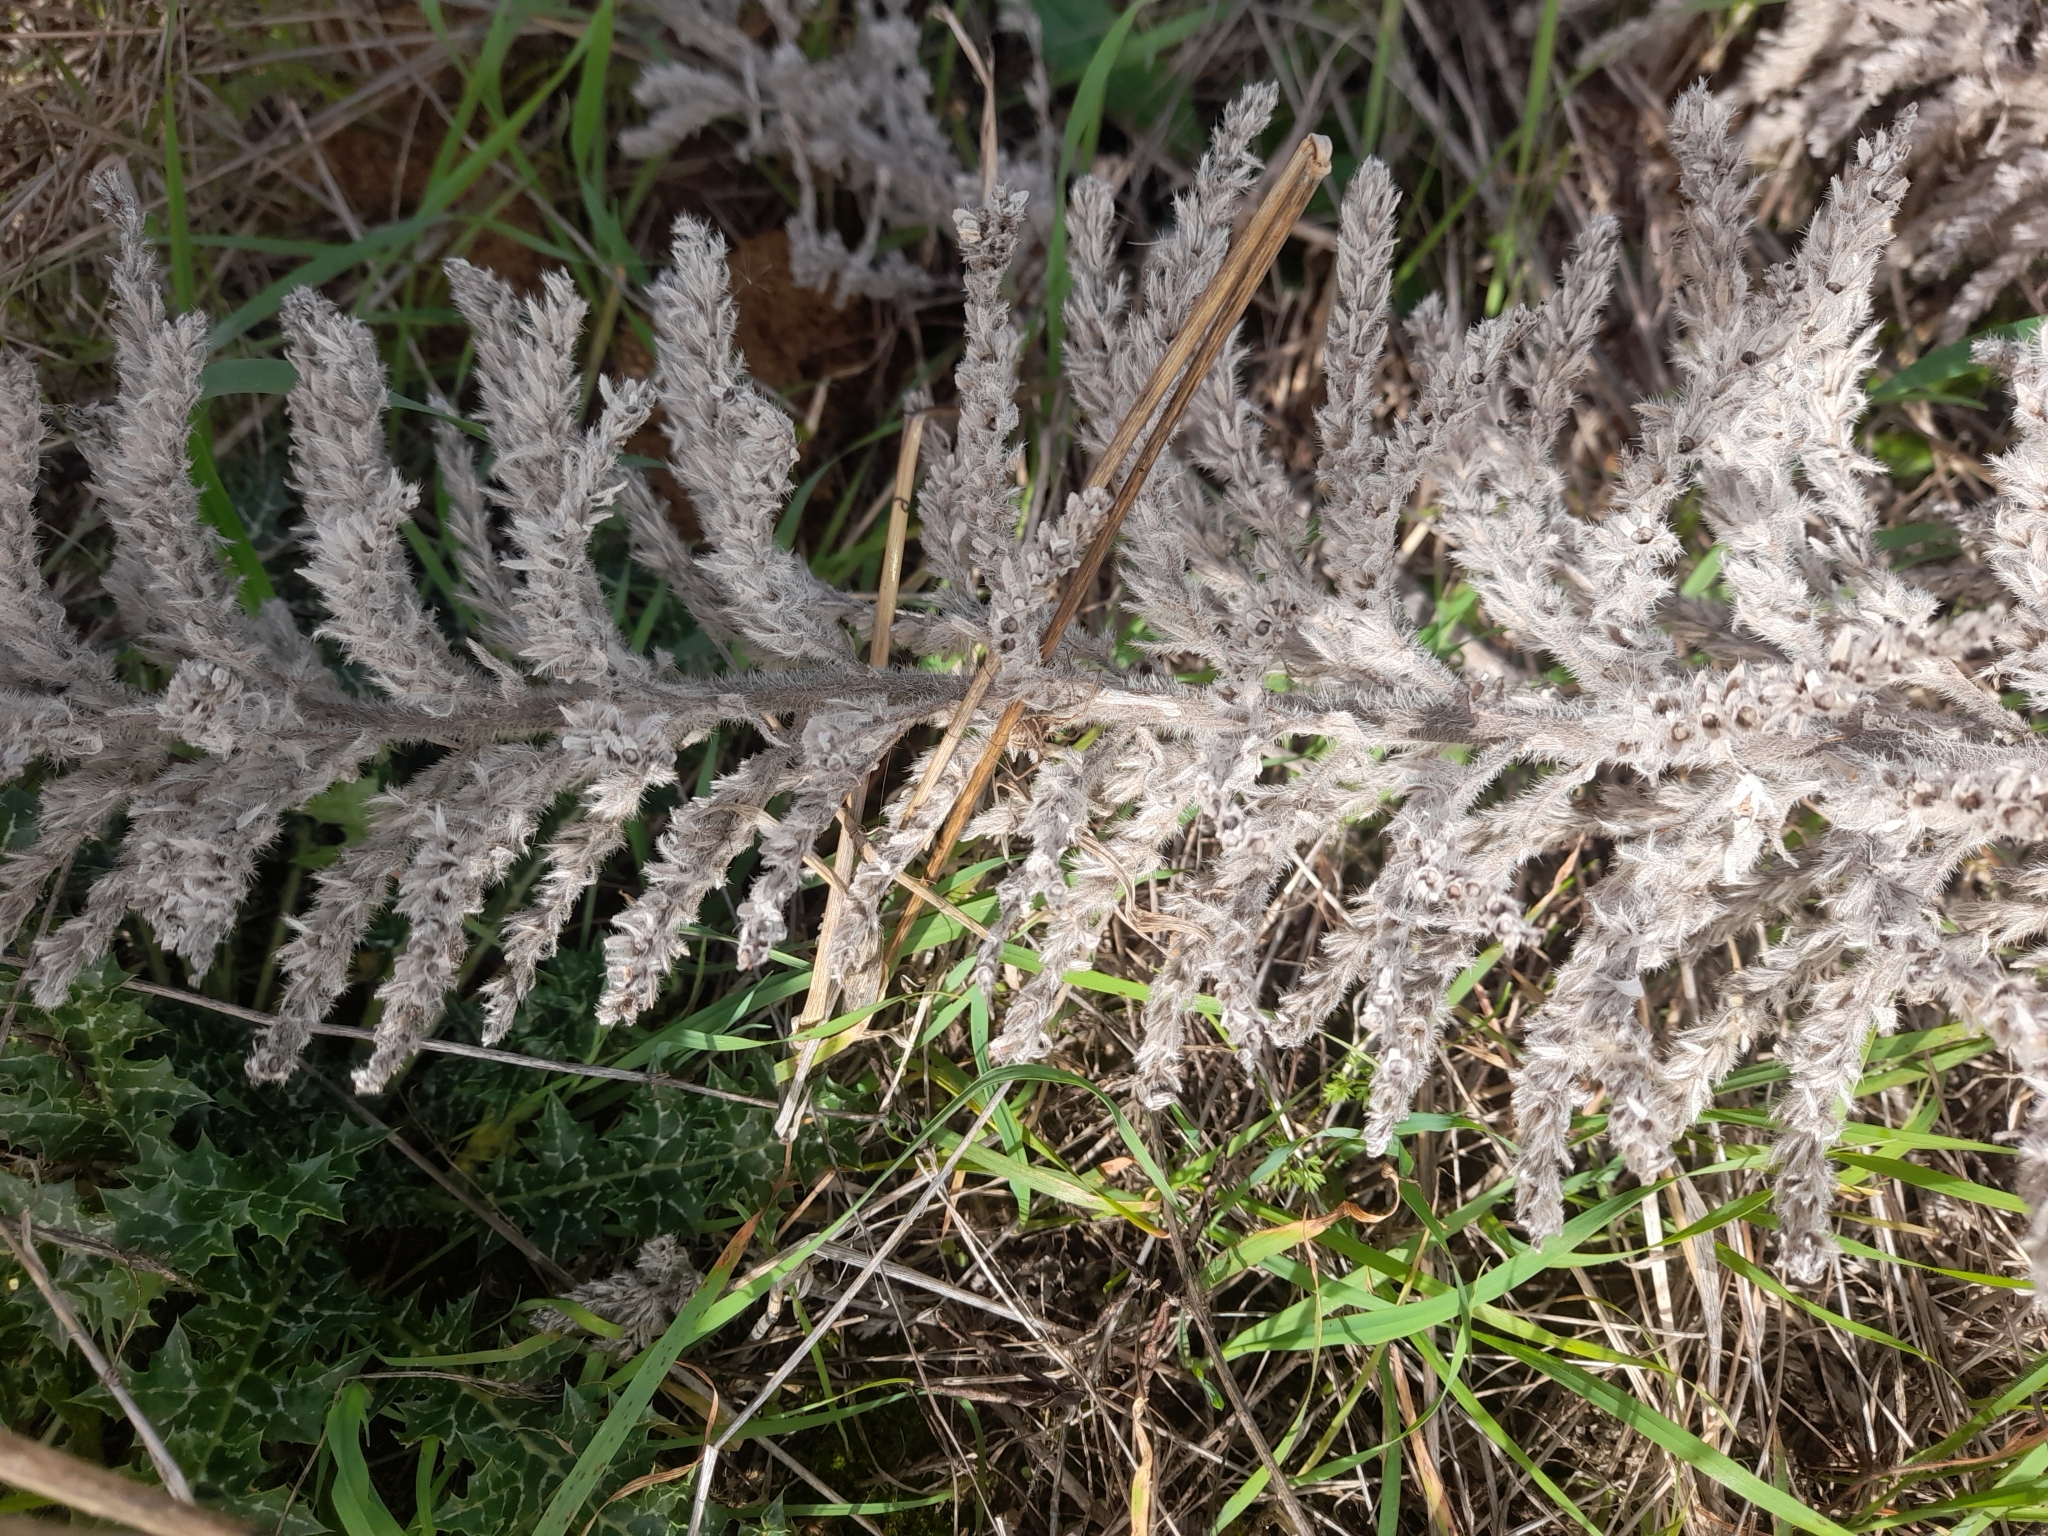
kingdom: Plantae
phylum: Tracheophyta
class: Magnoliopsida
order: Boraginales
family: Boraginaceae
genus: Echium
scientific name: Echium italicum
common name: Italian viper's bugloss
